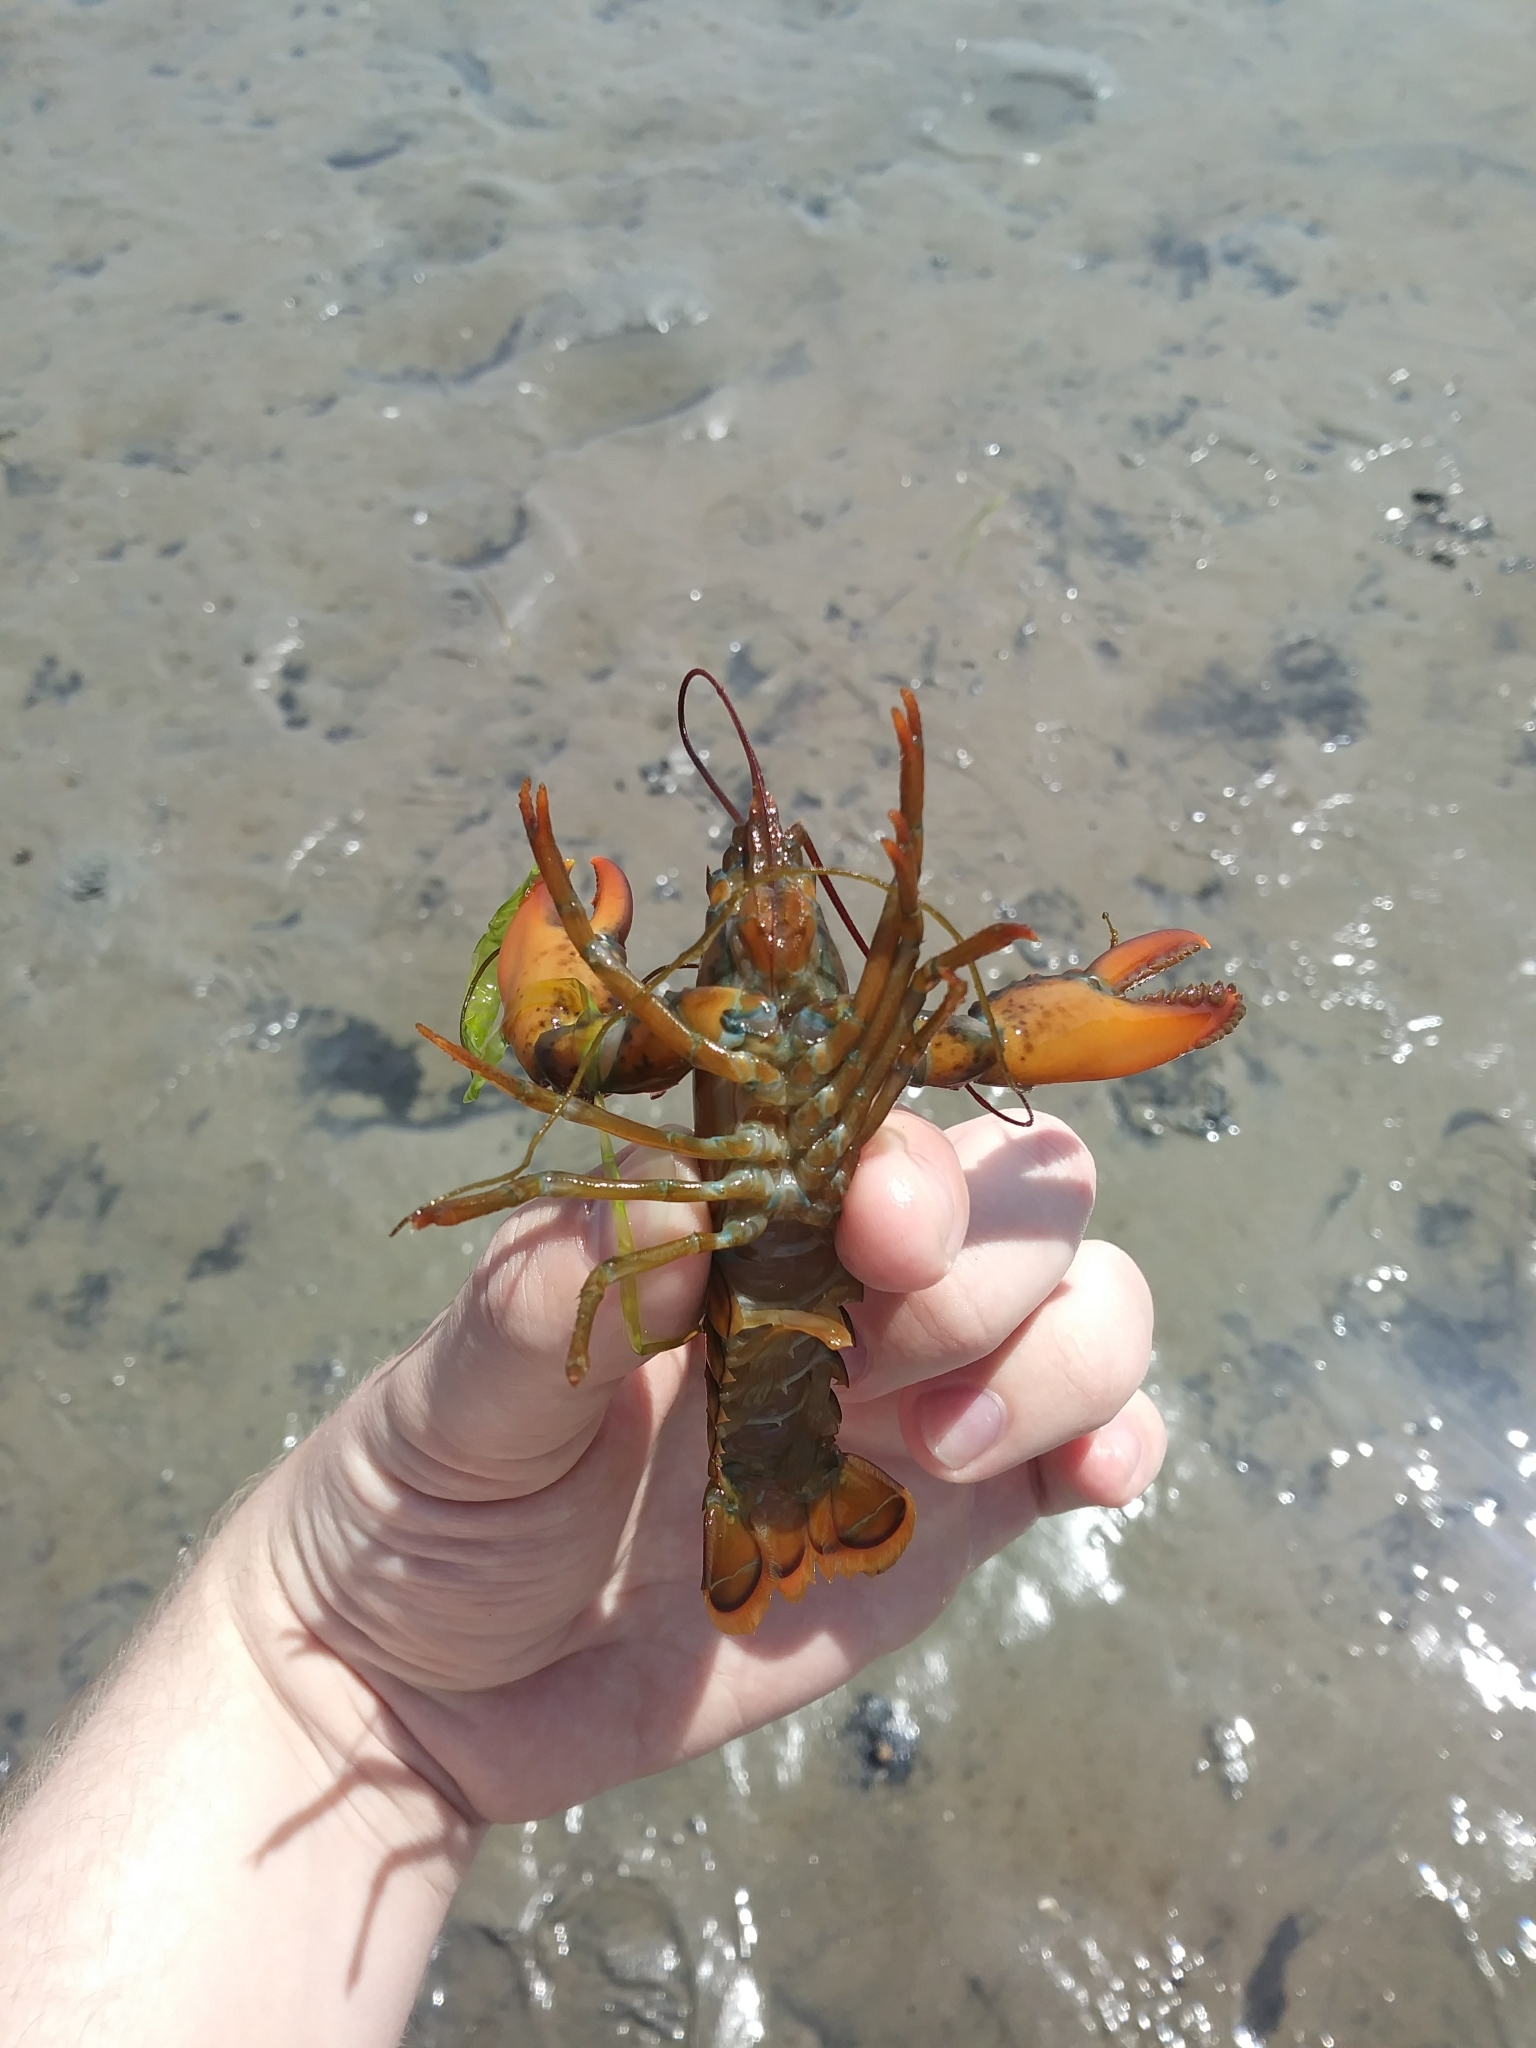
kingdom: Animalia
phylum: Arthropoda
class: Malacostraca
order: Decapoda
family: Nephropidae
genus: Homarus
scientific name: Homarus americanus
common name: American lobster
